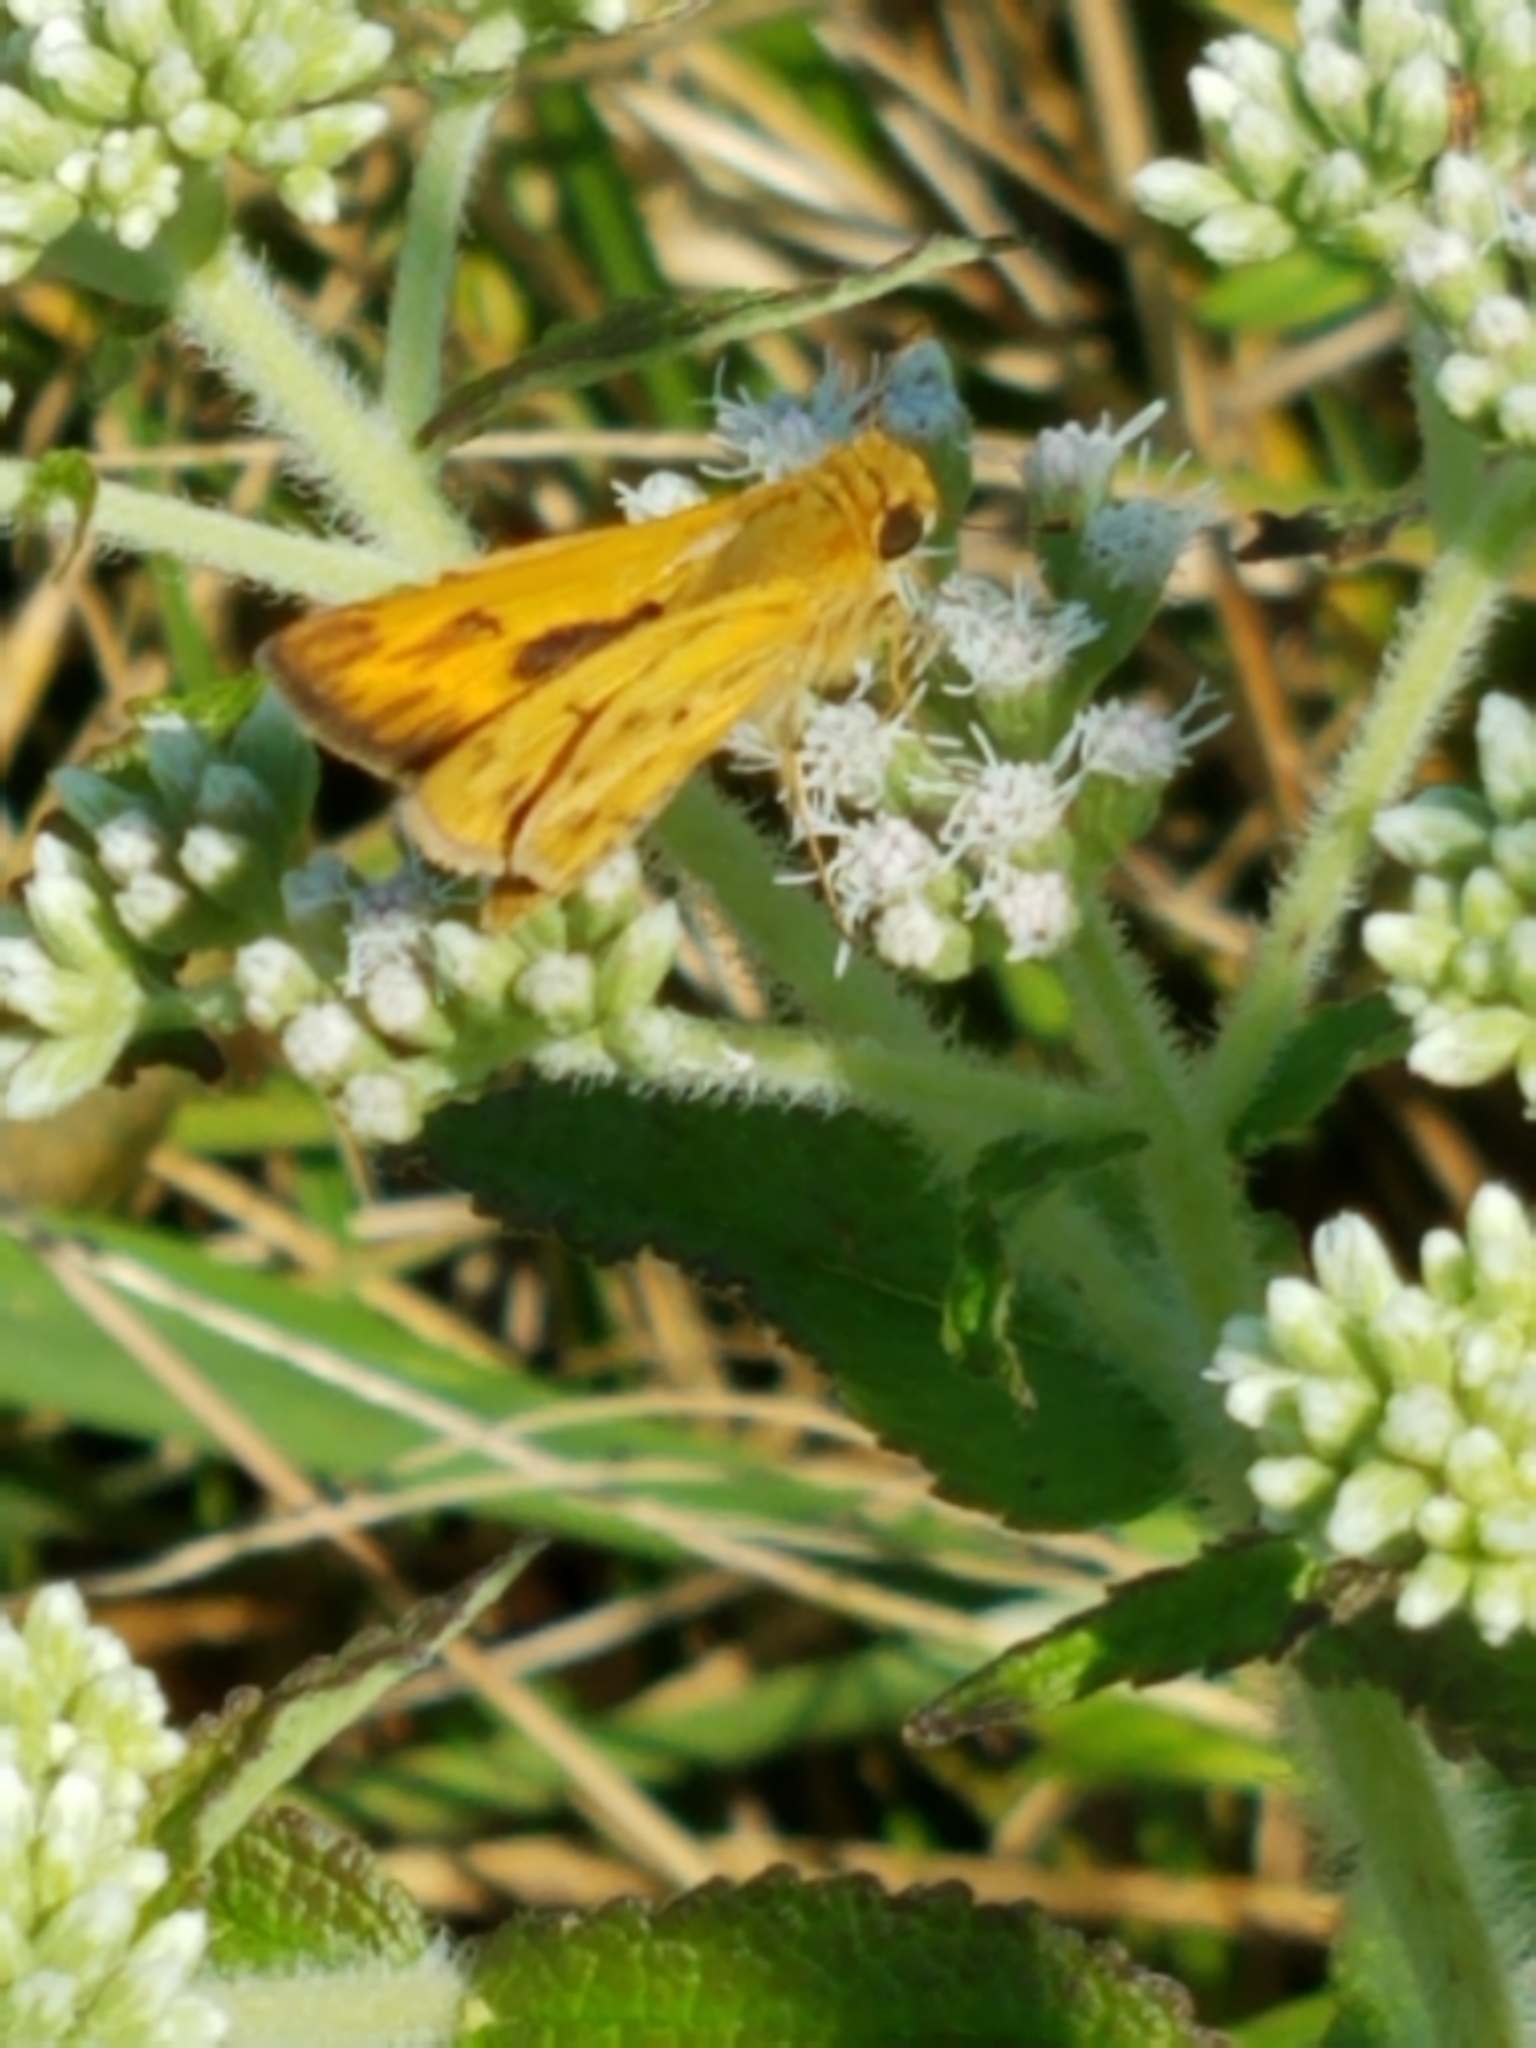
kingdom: Animalia
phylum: Arthropoda
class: Insecta
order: Lepidoptera
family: Hesperiidae
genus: Hylephila
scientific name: Hylephila phyleus
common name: Fiery skipper
